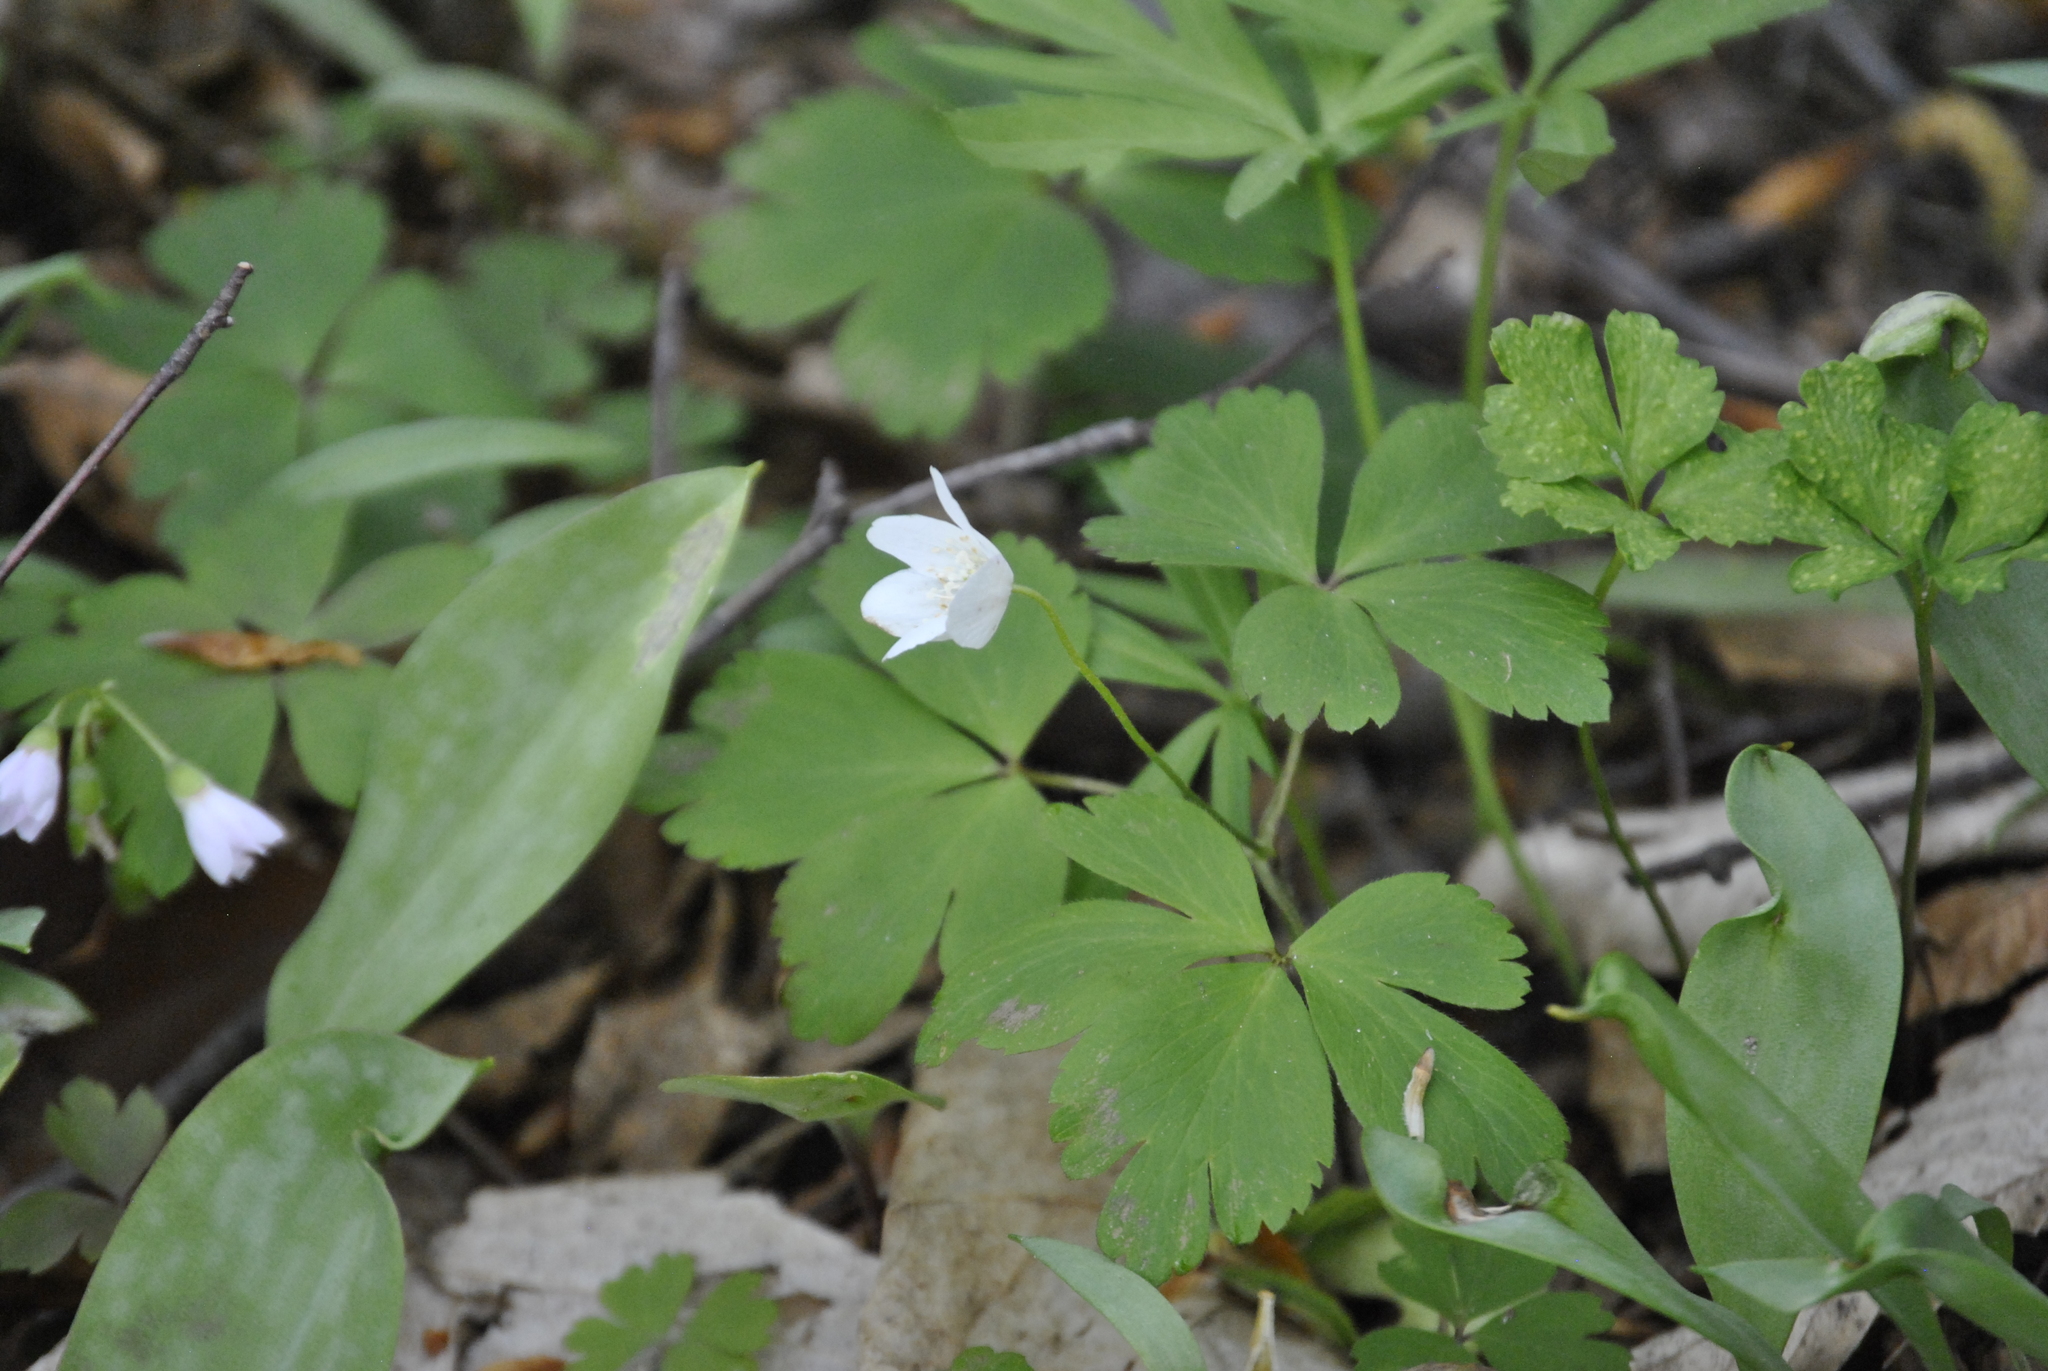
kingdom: Plantae
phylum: Tracheophyta
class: Magnoliopsida
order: Ranunculales
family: Ranunculaceae
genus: Anemone
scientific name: Anemone quinquefolia
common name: Wood anemone
